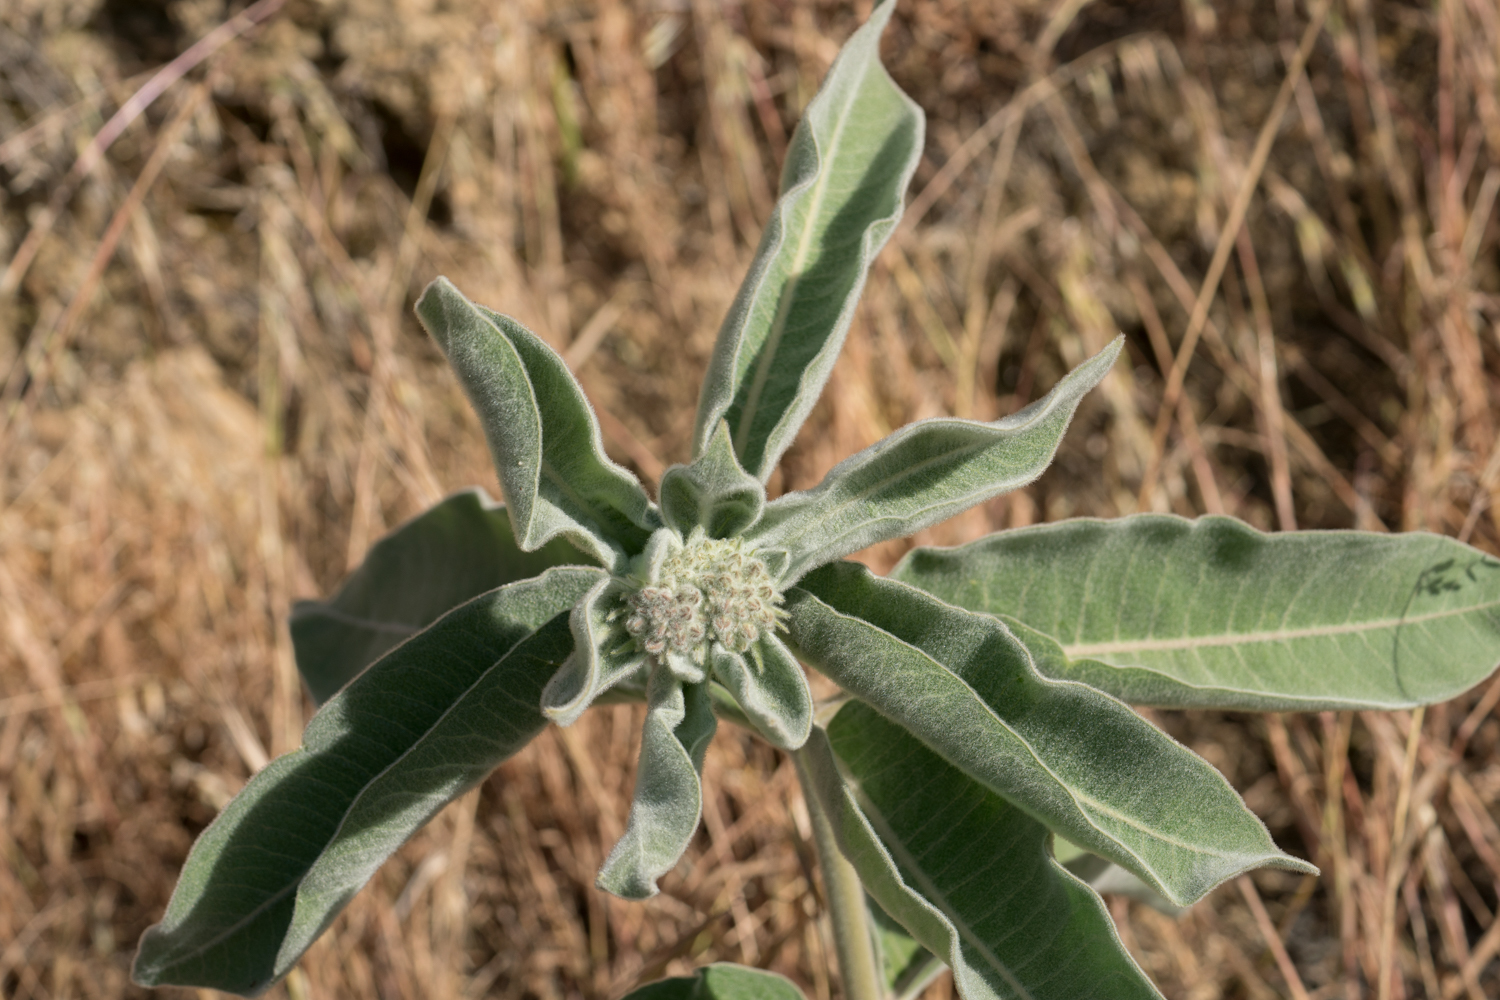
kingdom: Plantae
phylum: Tracheophyta
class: Magnoliopsida
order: Gentianales
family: Apocynaceae
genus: Asclepias
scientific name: Asclepias eriocarpa
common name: Indian milkweed
